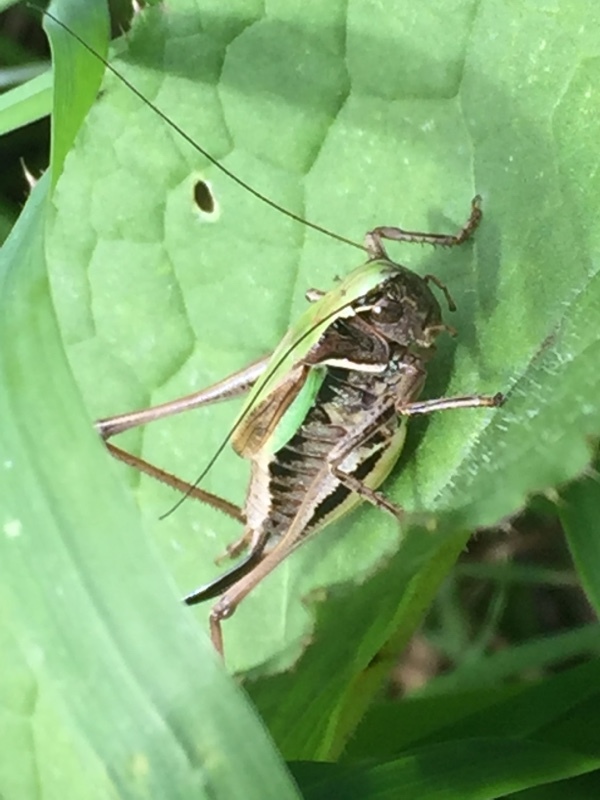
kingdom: Animalia
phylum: Arthropoda
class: Insecta
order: Orthoptera
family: Tettigoniidae
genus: Metrioptera
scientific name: Metrioptera brachyptera
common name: Bog bush-cricket
